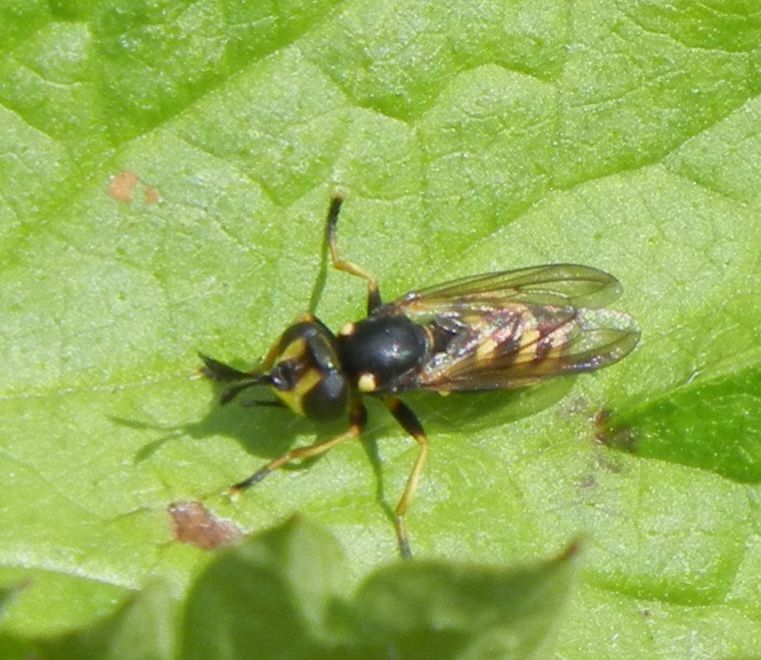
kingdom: Animalia
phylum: Arthropoda
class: Insecta
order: Diptera
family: Conopidae
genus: Conops
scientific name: Conops flavipes
